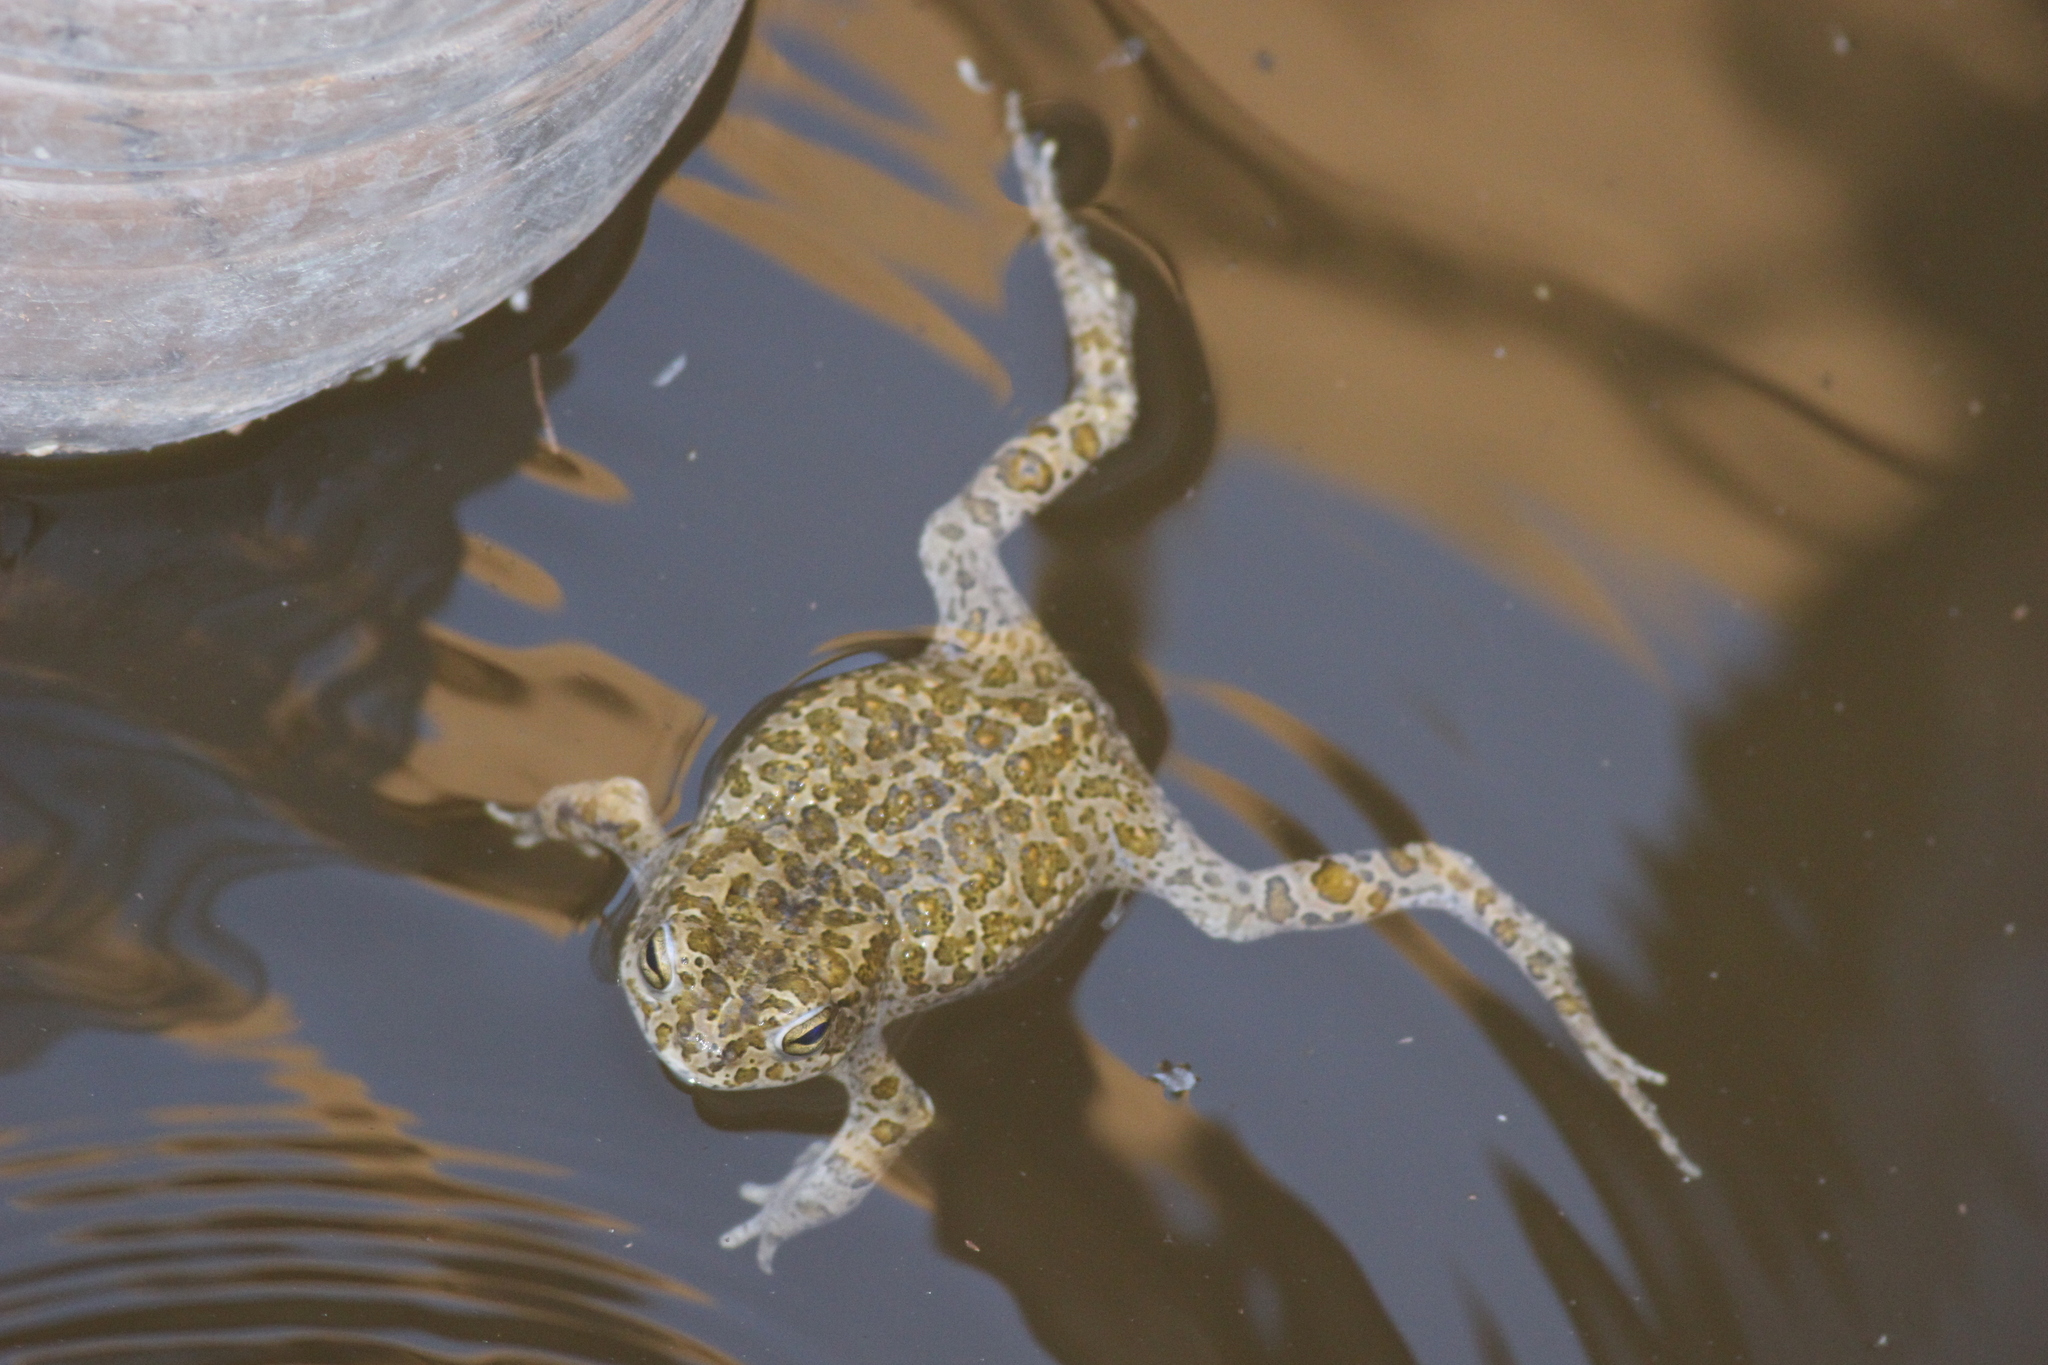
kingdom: Animalia
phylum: Chordata
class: Amphibia
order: Anura
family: Bufonidae
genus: Bufotes
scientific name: Bufotes boulengeri
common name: African green toad
